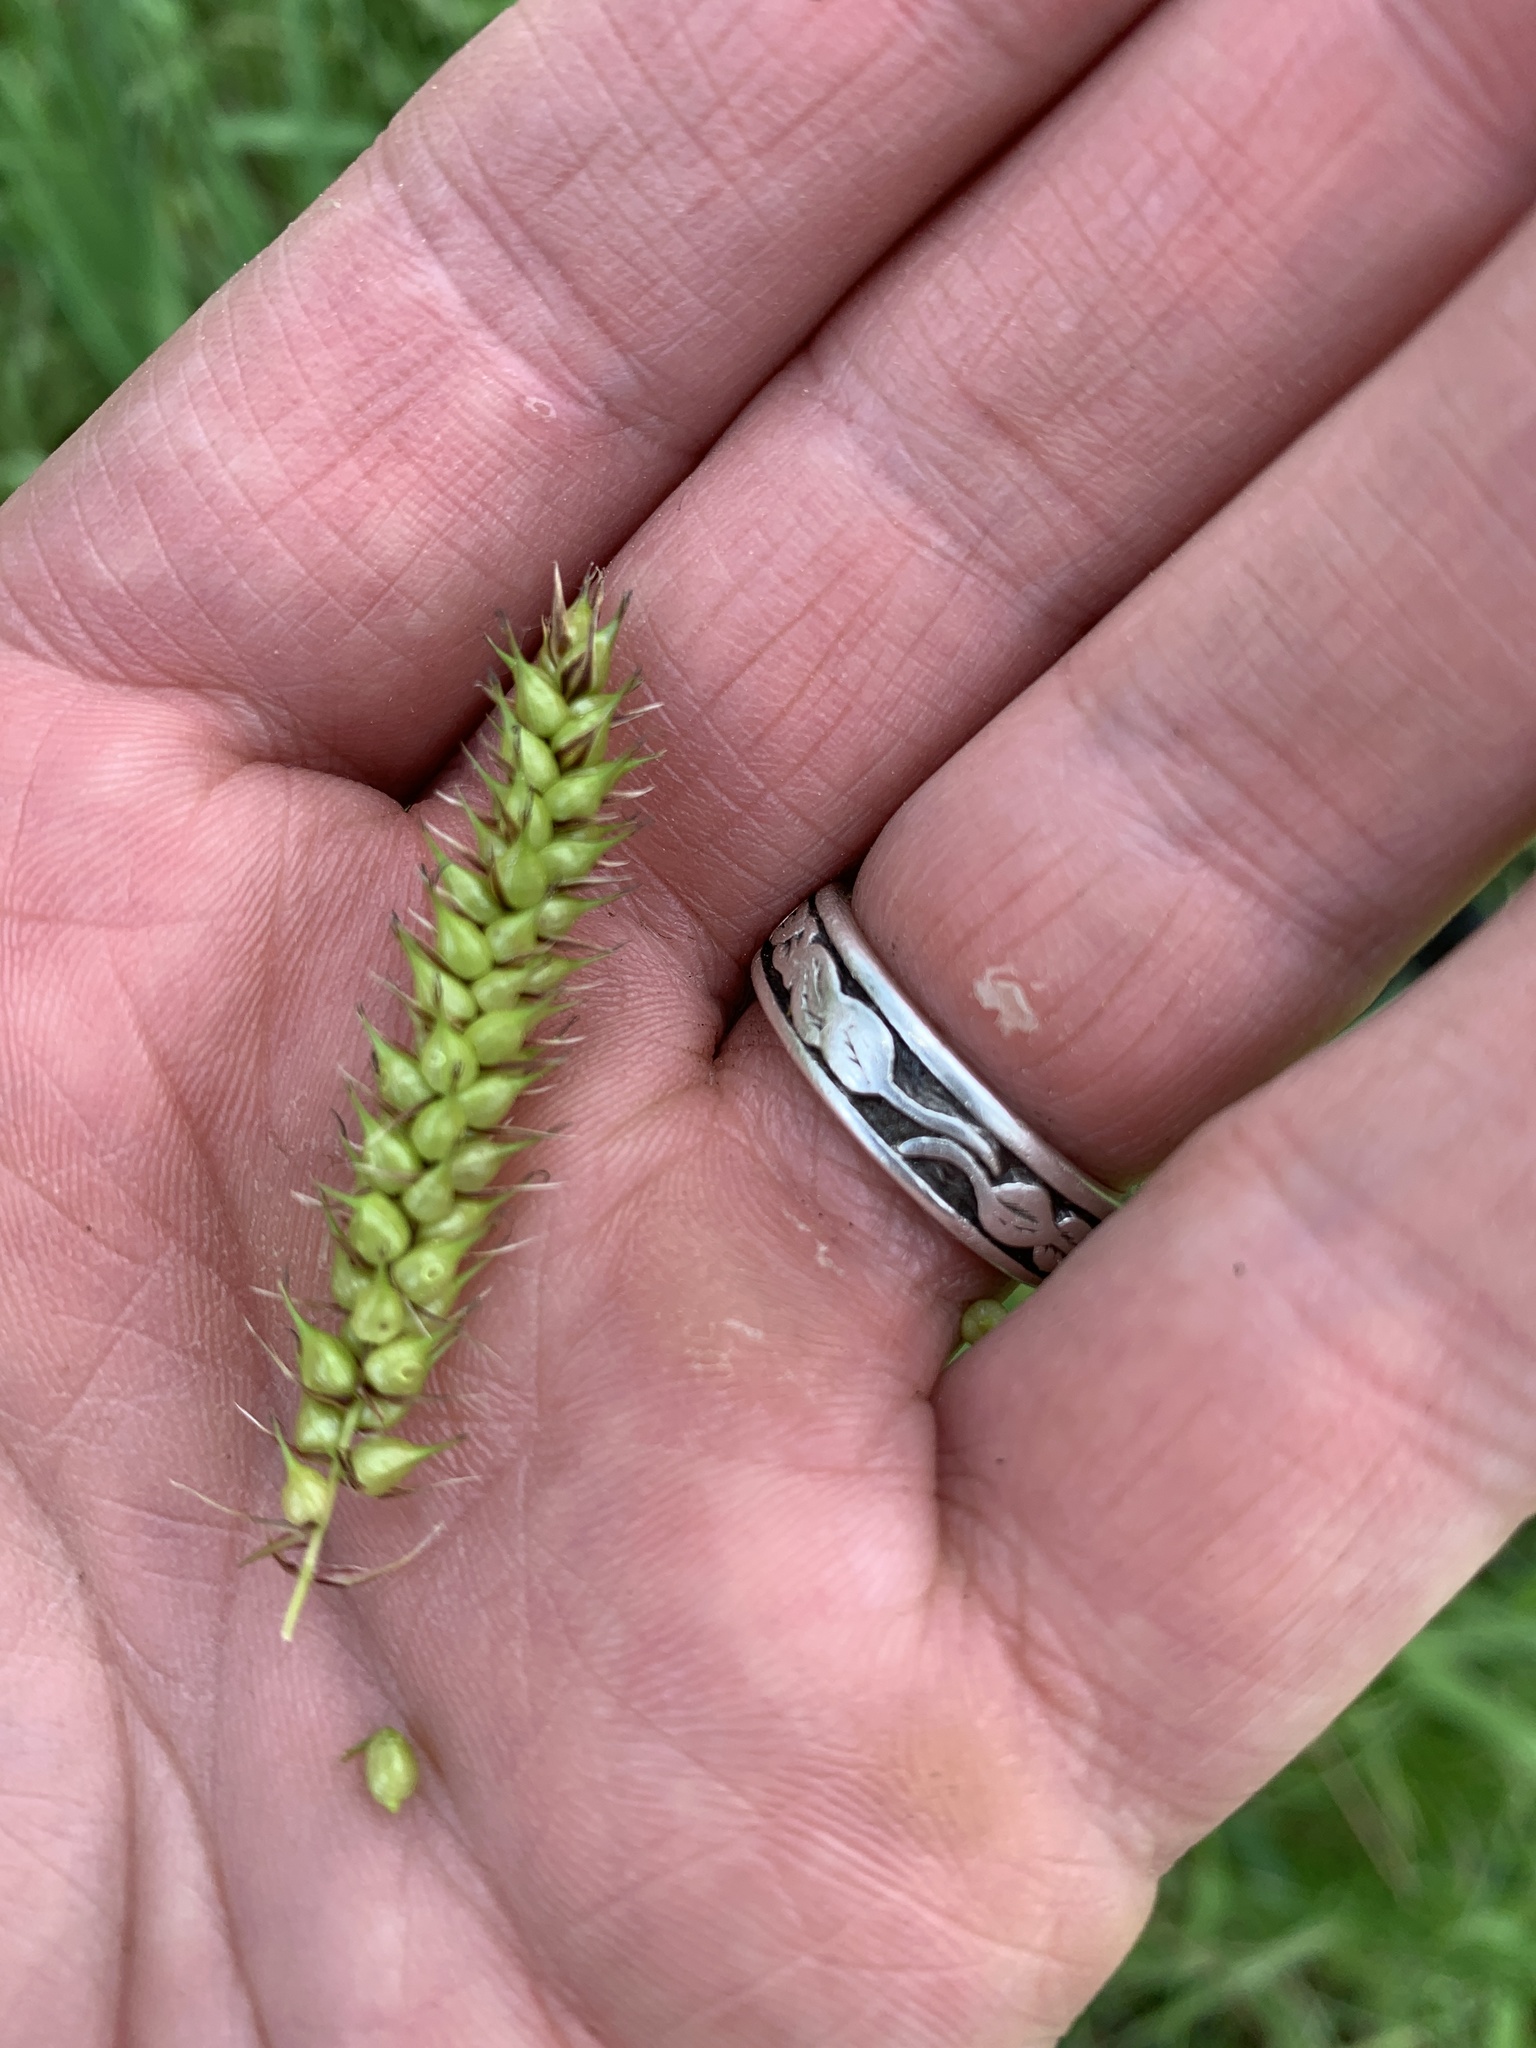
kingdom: Plantae
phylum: Tracheophyta
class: Liliopsida
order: Poales
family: Cyperaceae
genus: Carex
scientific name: Carex vesicaria
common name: Bladder-sedge
